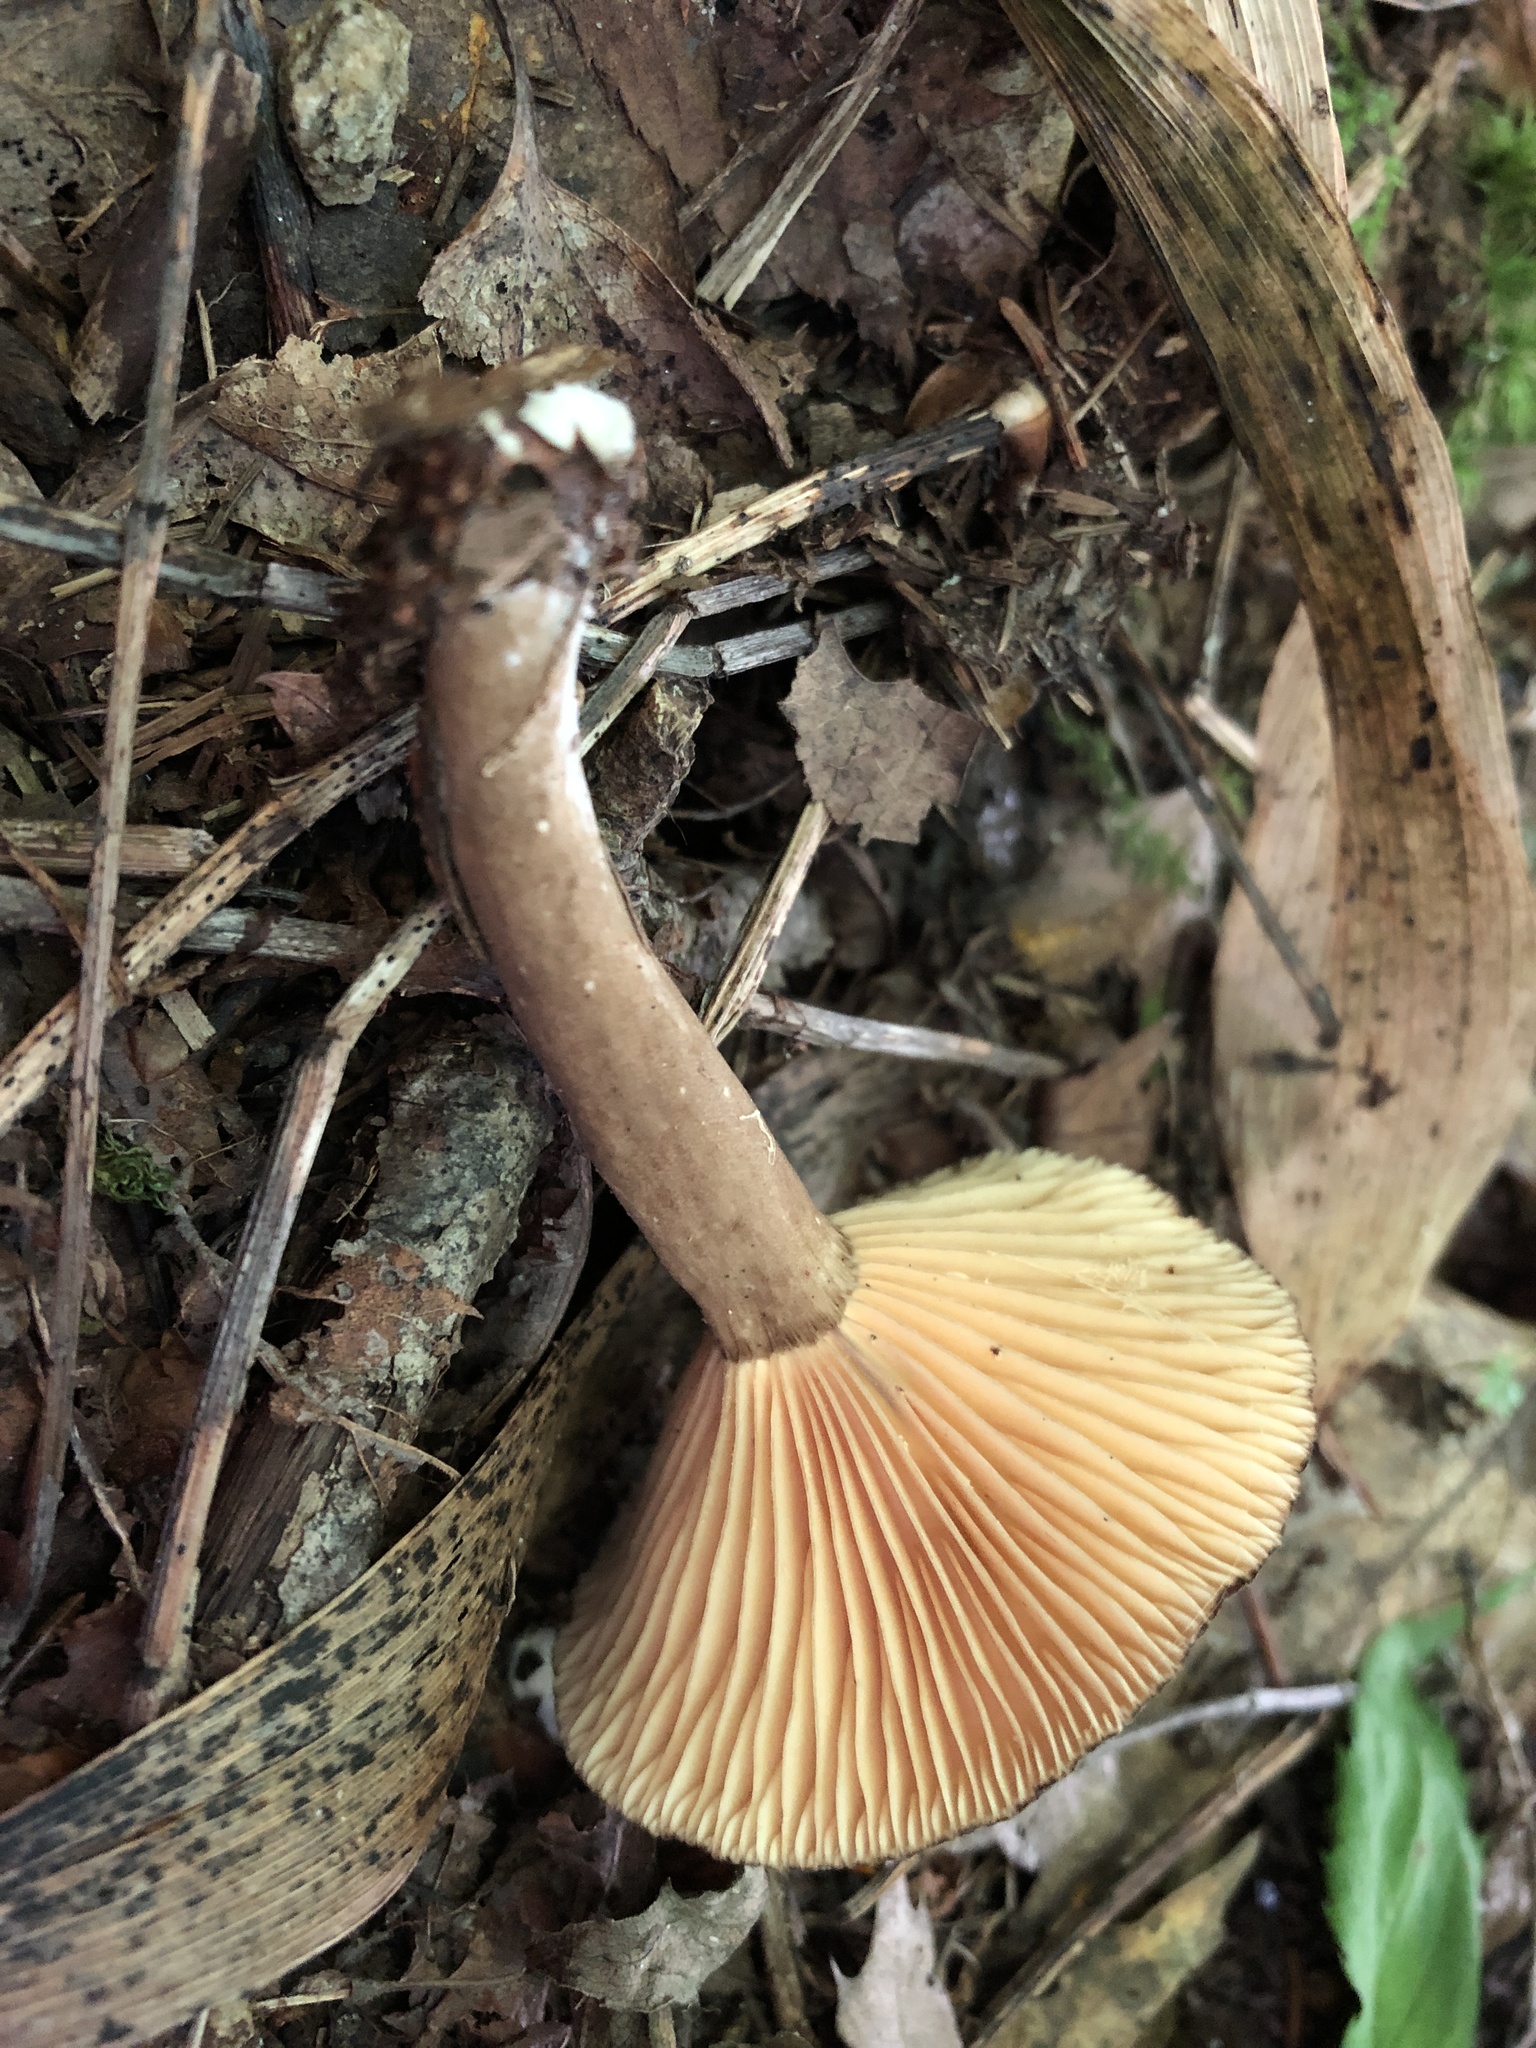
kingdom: Fungi
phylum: Basidiomycota
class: Agaricomycetes
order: Russulales
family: Russulaceae
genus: Lactarius
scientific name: Lactarius lignyotus
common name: Velvet milkcap
